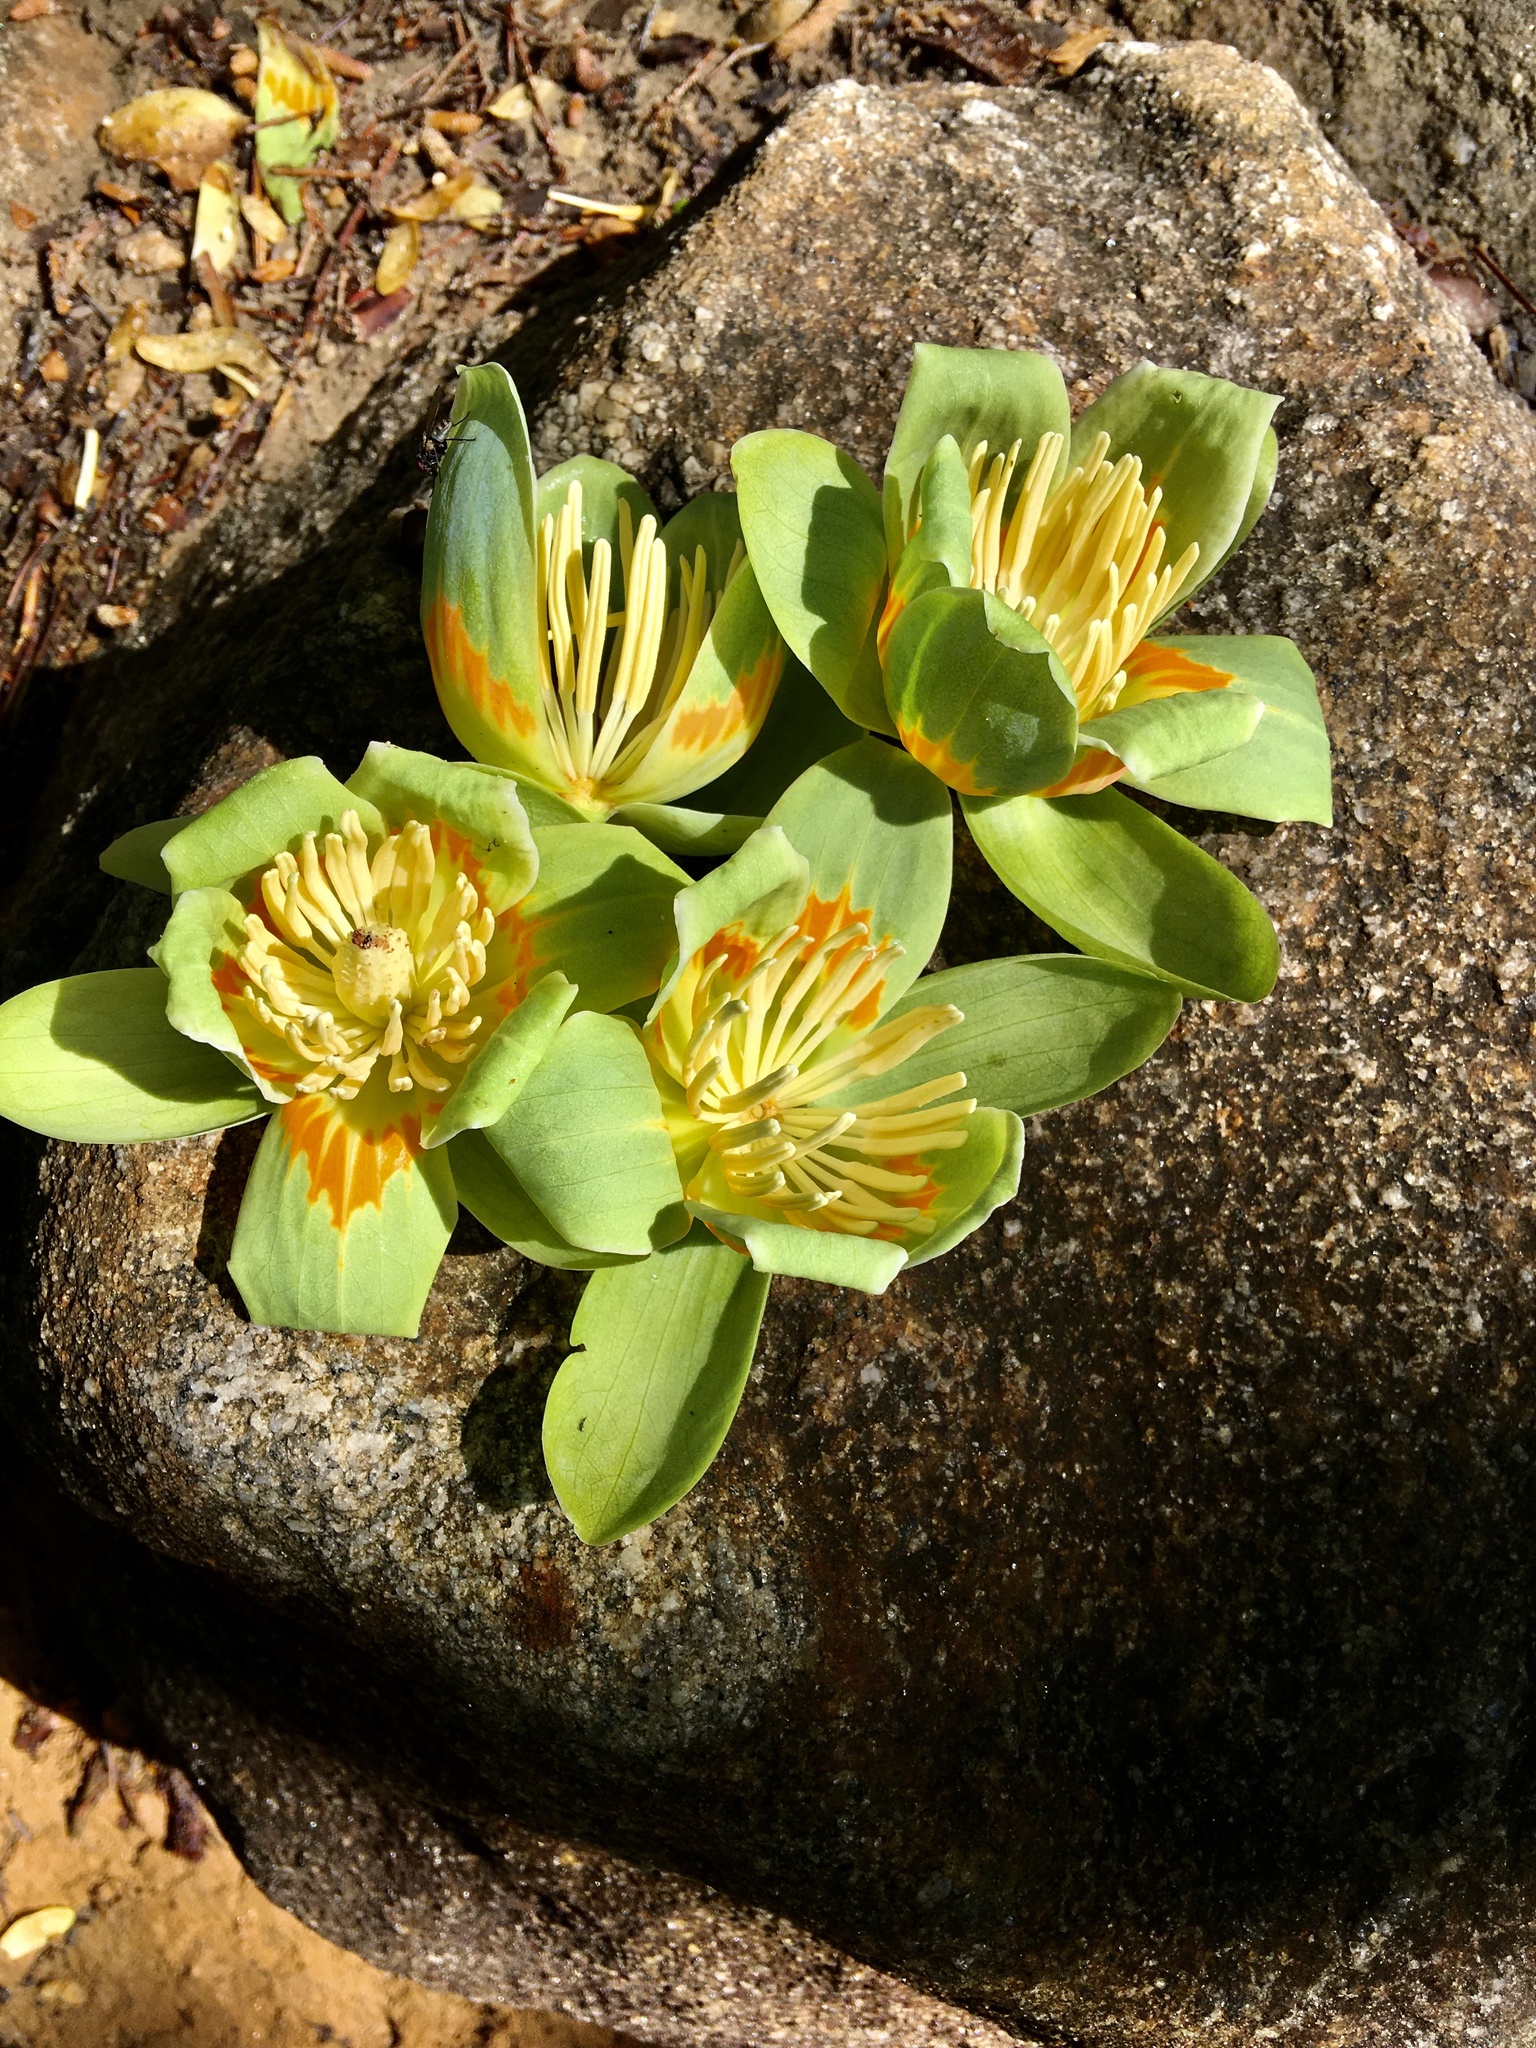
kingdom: Plantae
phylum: Tracheophyta
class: Magnoliopsida
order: Magnoliales
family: Magnoliaceae
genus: Liriodendron
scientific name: Liriodendron tulipifera
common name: Tulip tree
